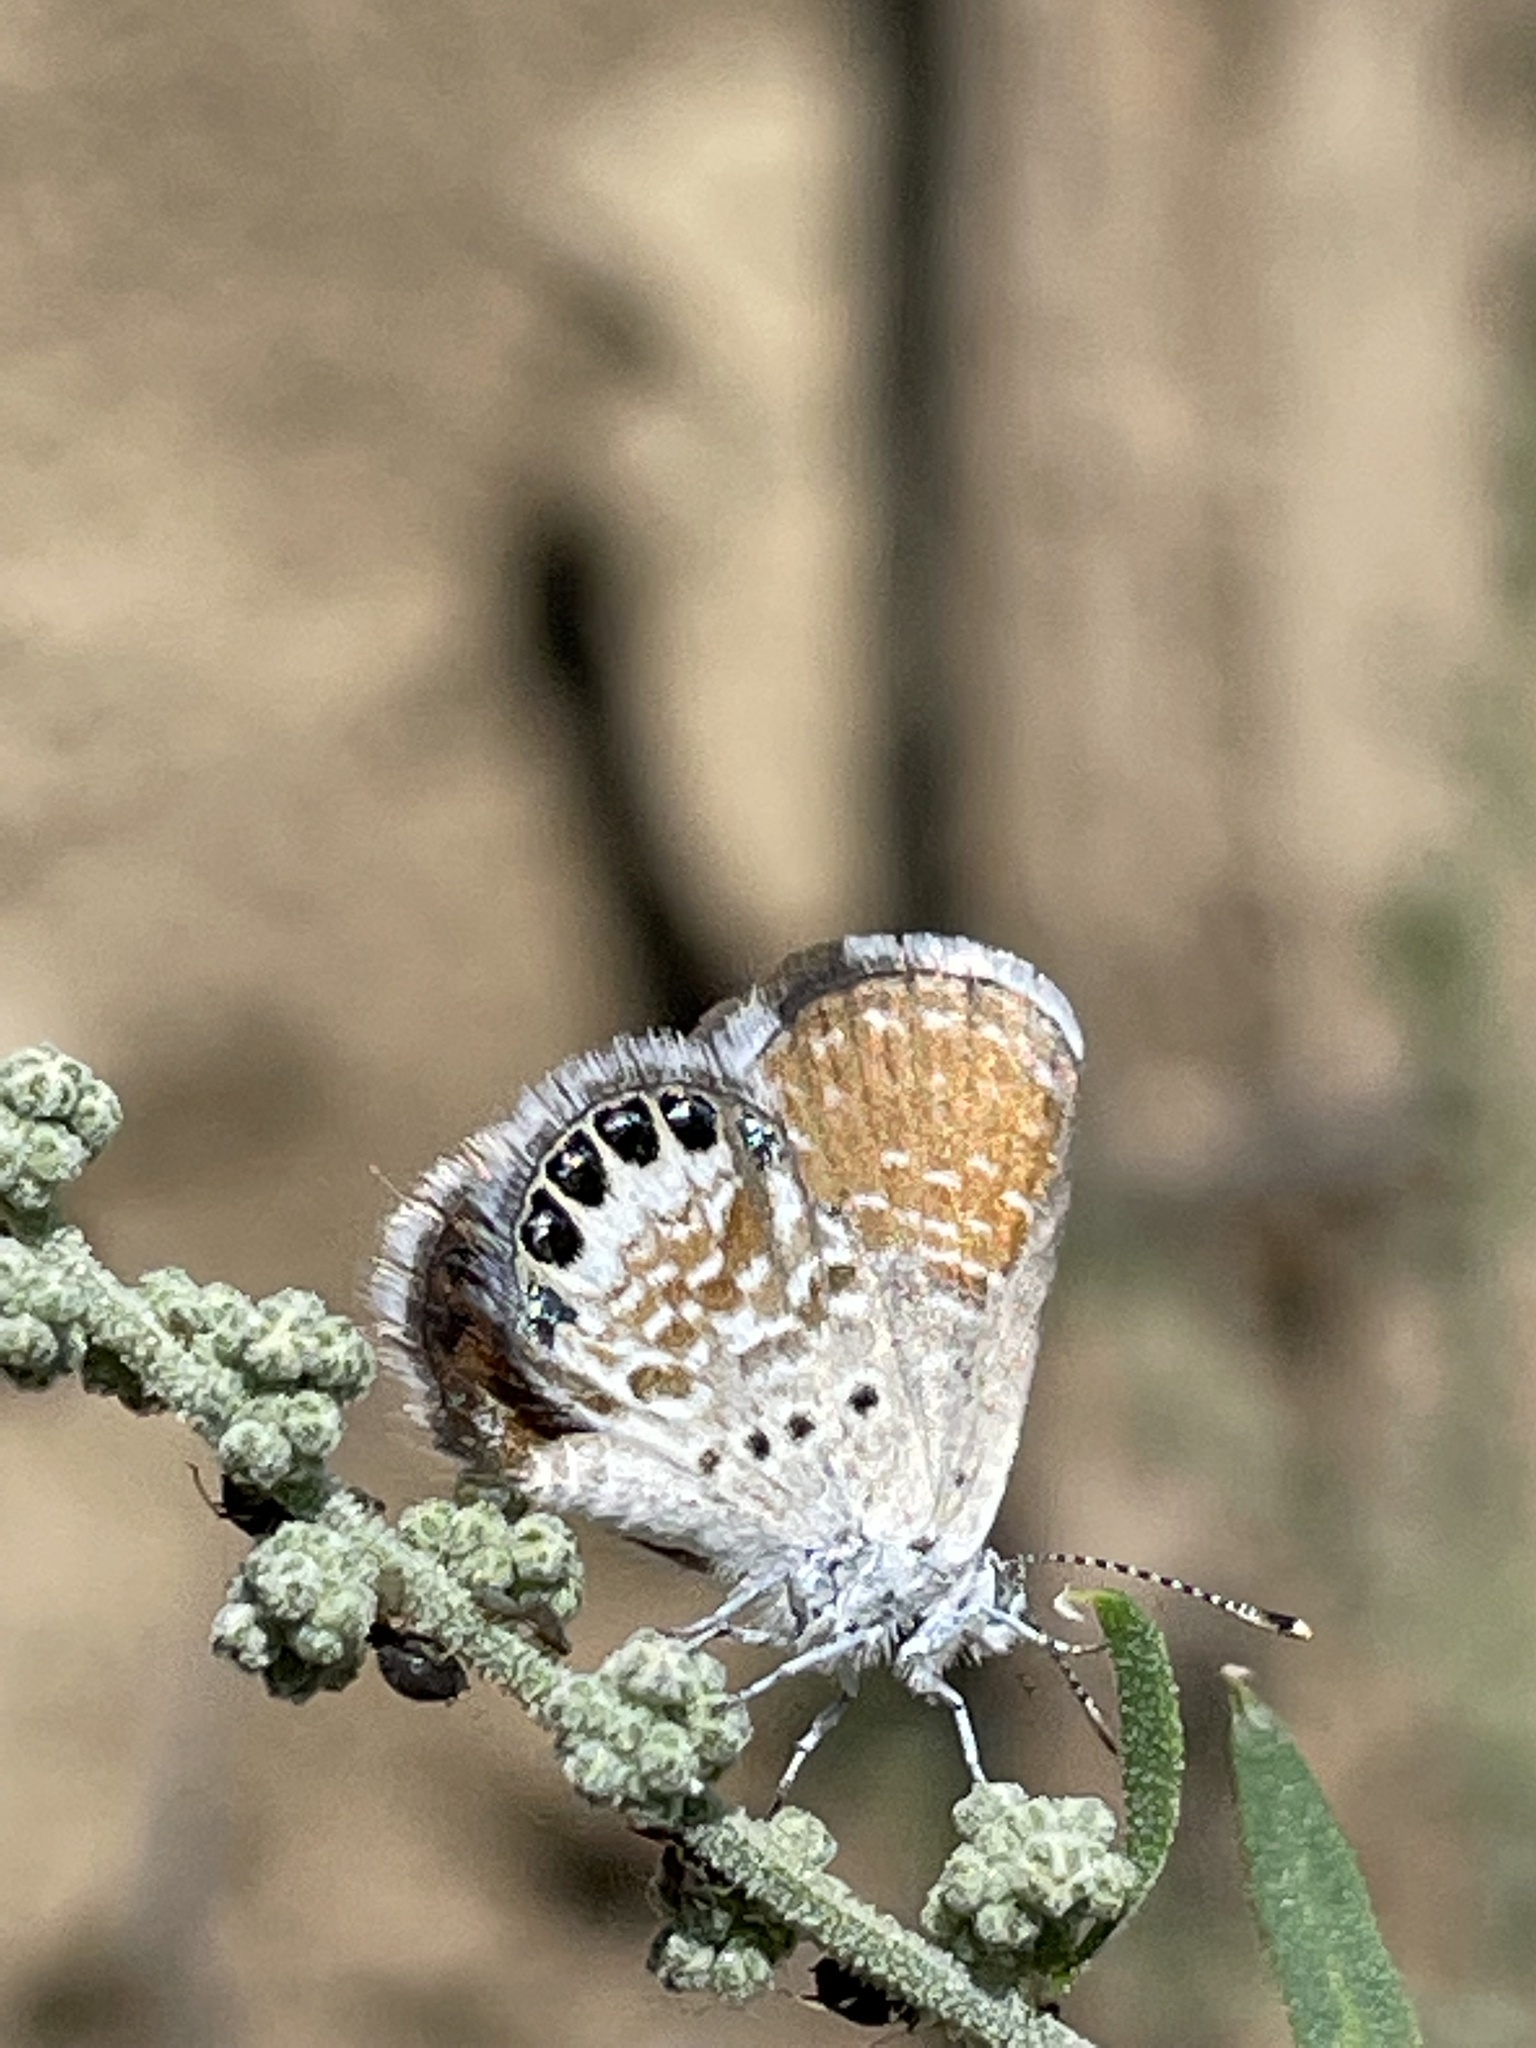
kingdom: Animalia
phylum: Arthropoda
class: Insecta
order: Lepidoptera
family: Lycaenidae
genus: Brephidium
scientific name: Brephidium exilis
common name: Pygmy blue
